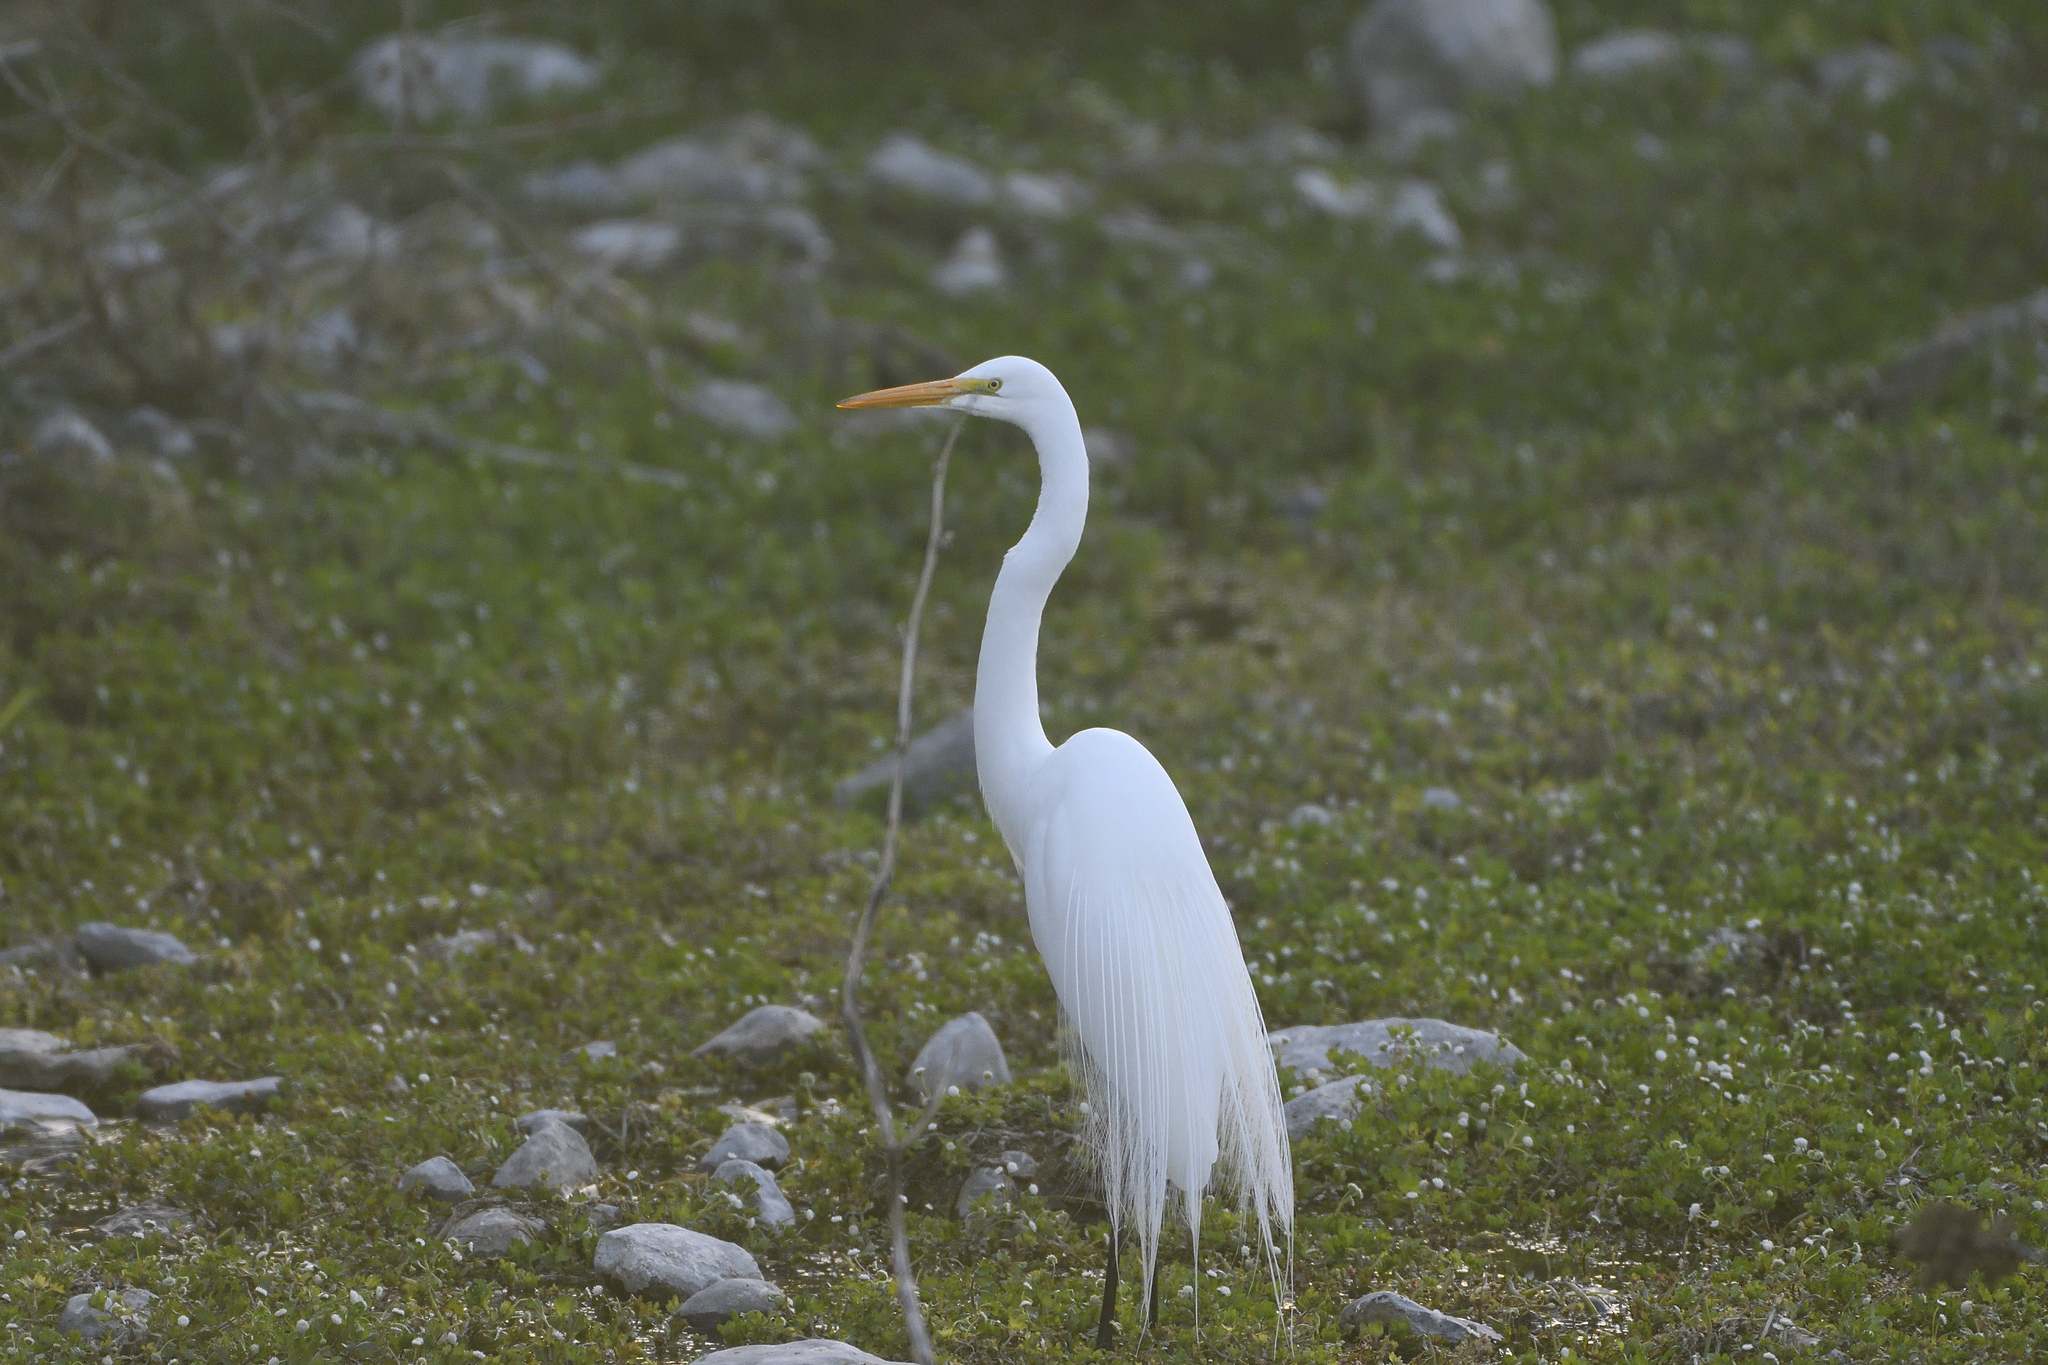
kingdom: Animalia
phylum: Chordata
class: Aves
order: Pelecaniformes
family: Ardeidae
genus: Ardea
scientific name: Ardea alba
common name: Great egret
